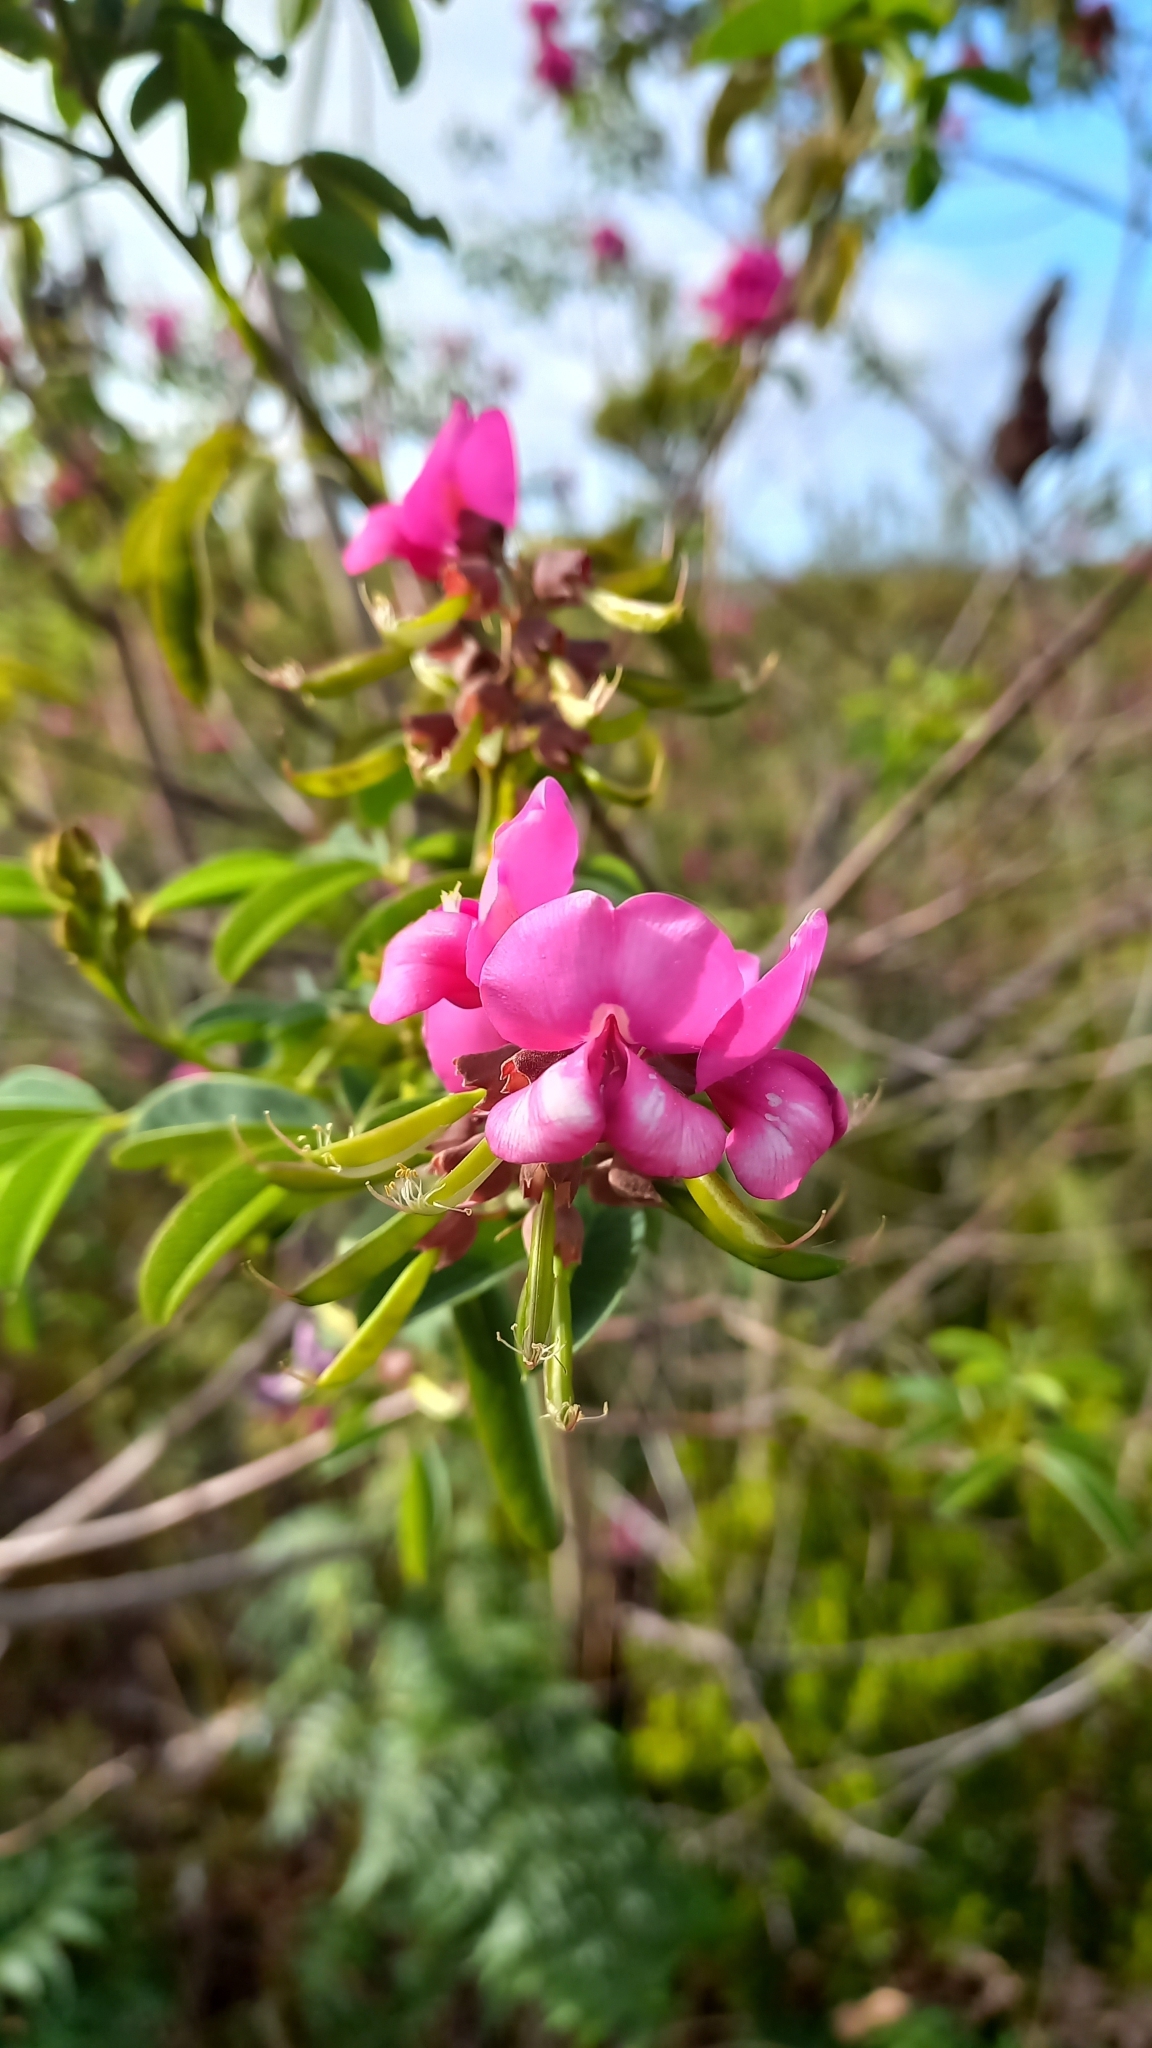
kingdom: Plantae
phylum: Tracheophyta
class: Magnoliopsida
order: Fabales
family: Fabaceae
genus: Hypocalyptus
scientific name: Hypocalyptus coluteoides
